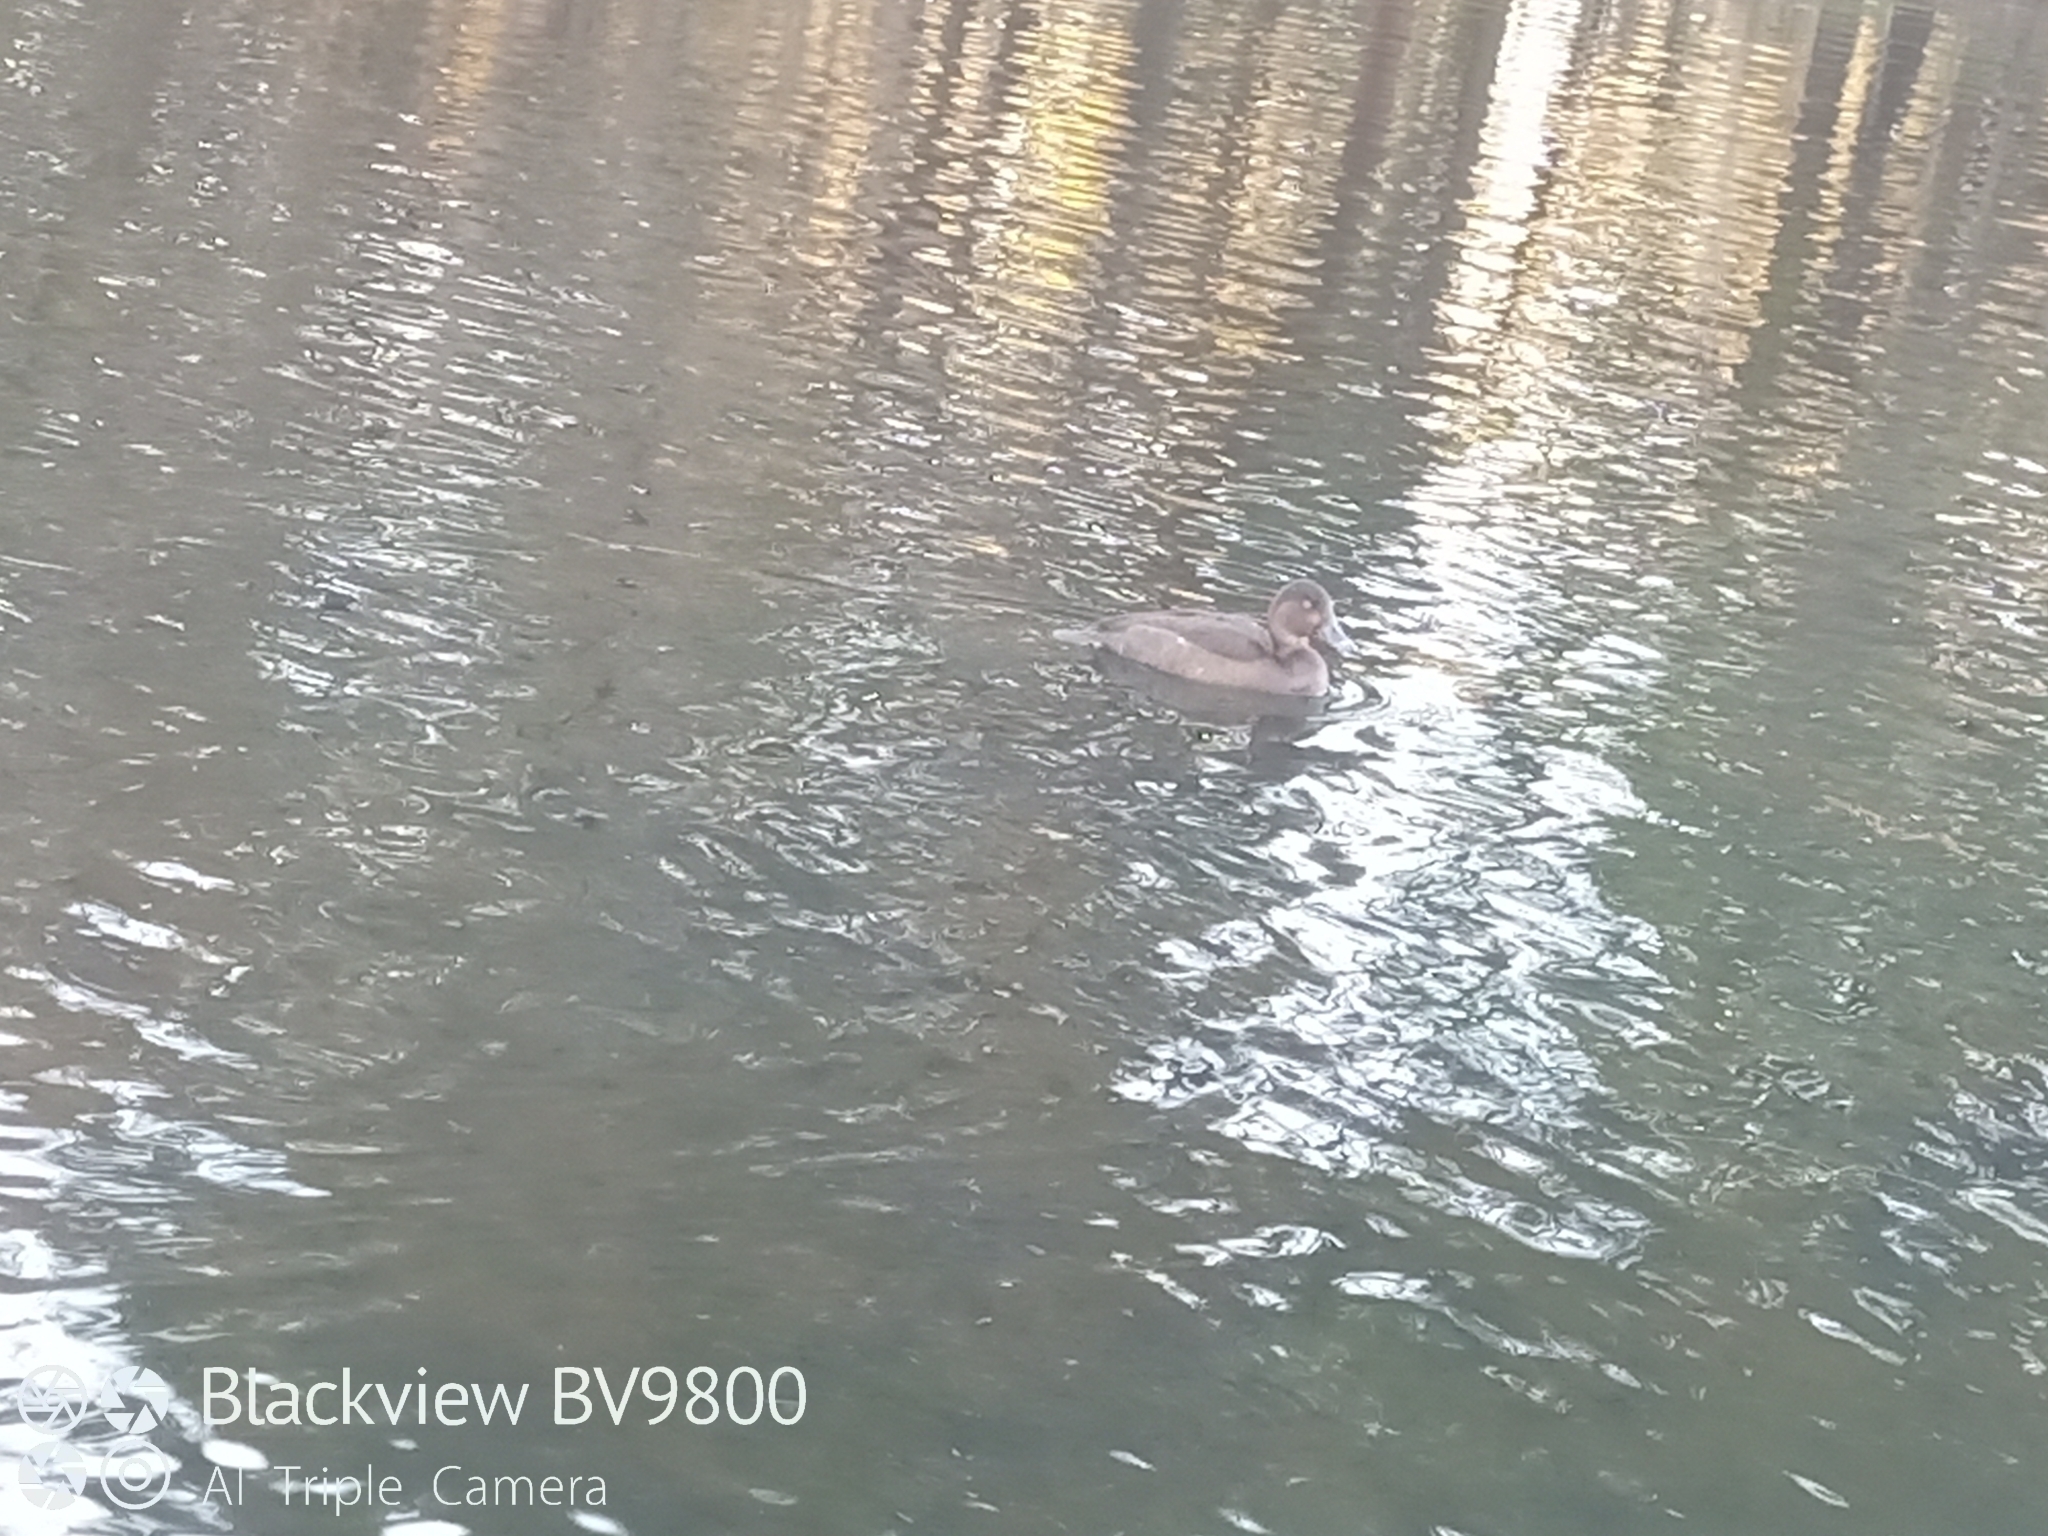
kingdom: Animalia
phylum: Chordata
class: Aves
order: Anseriformes
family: Anatidae
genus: Aythya
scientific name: Aythya australis
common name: Hardhead
